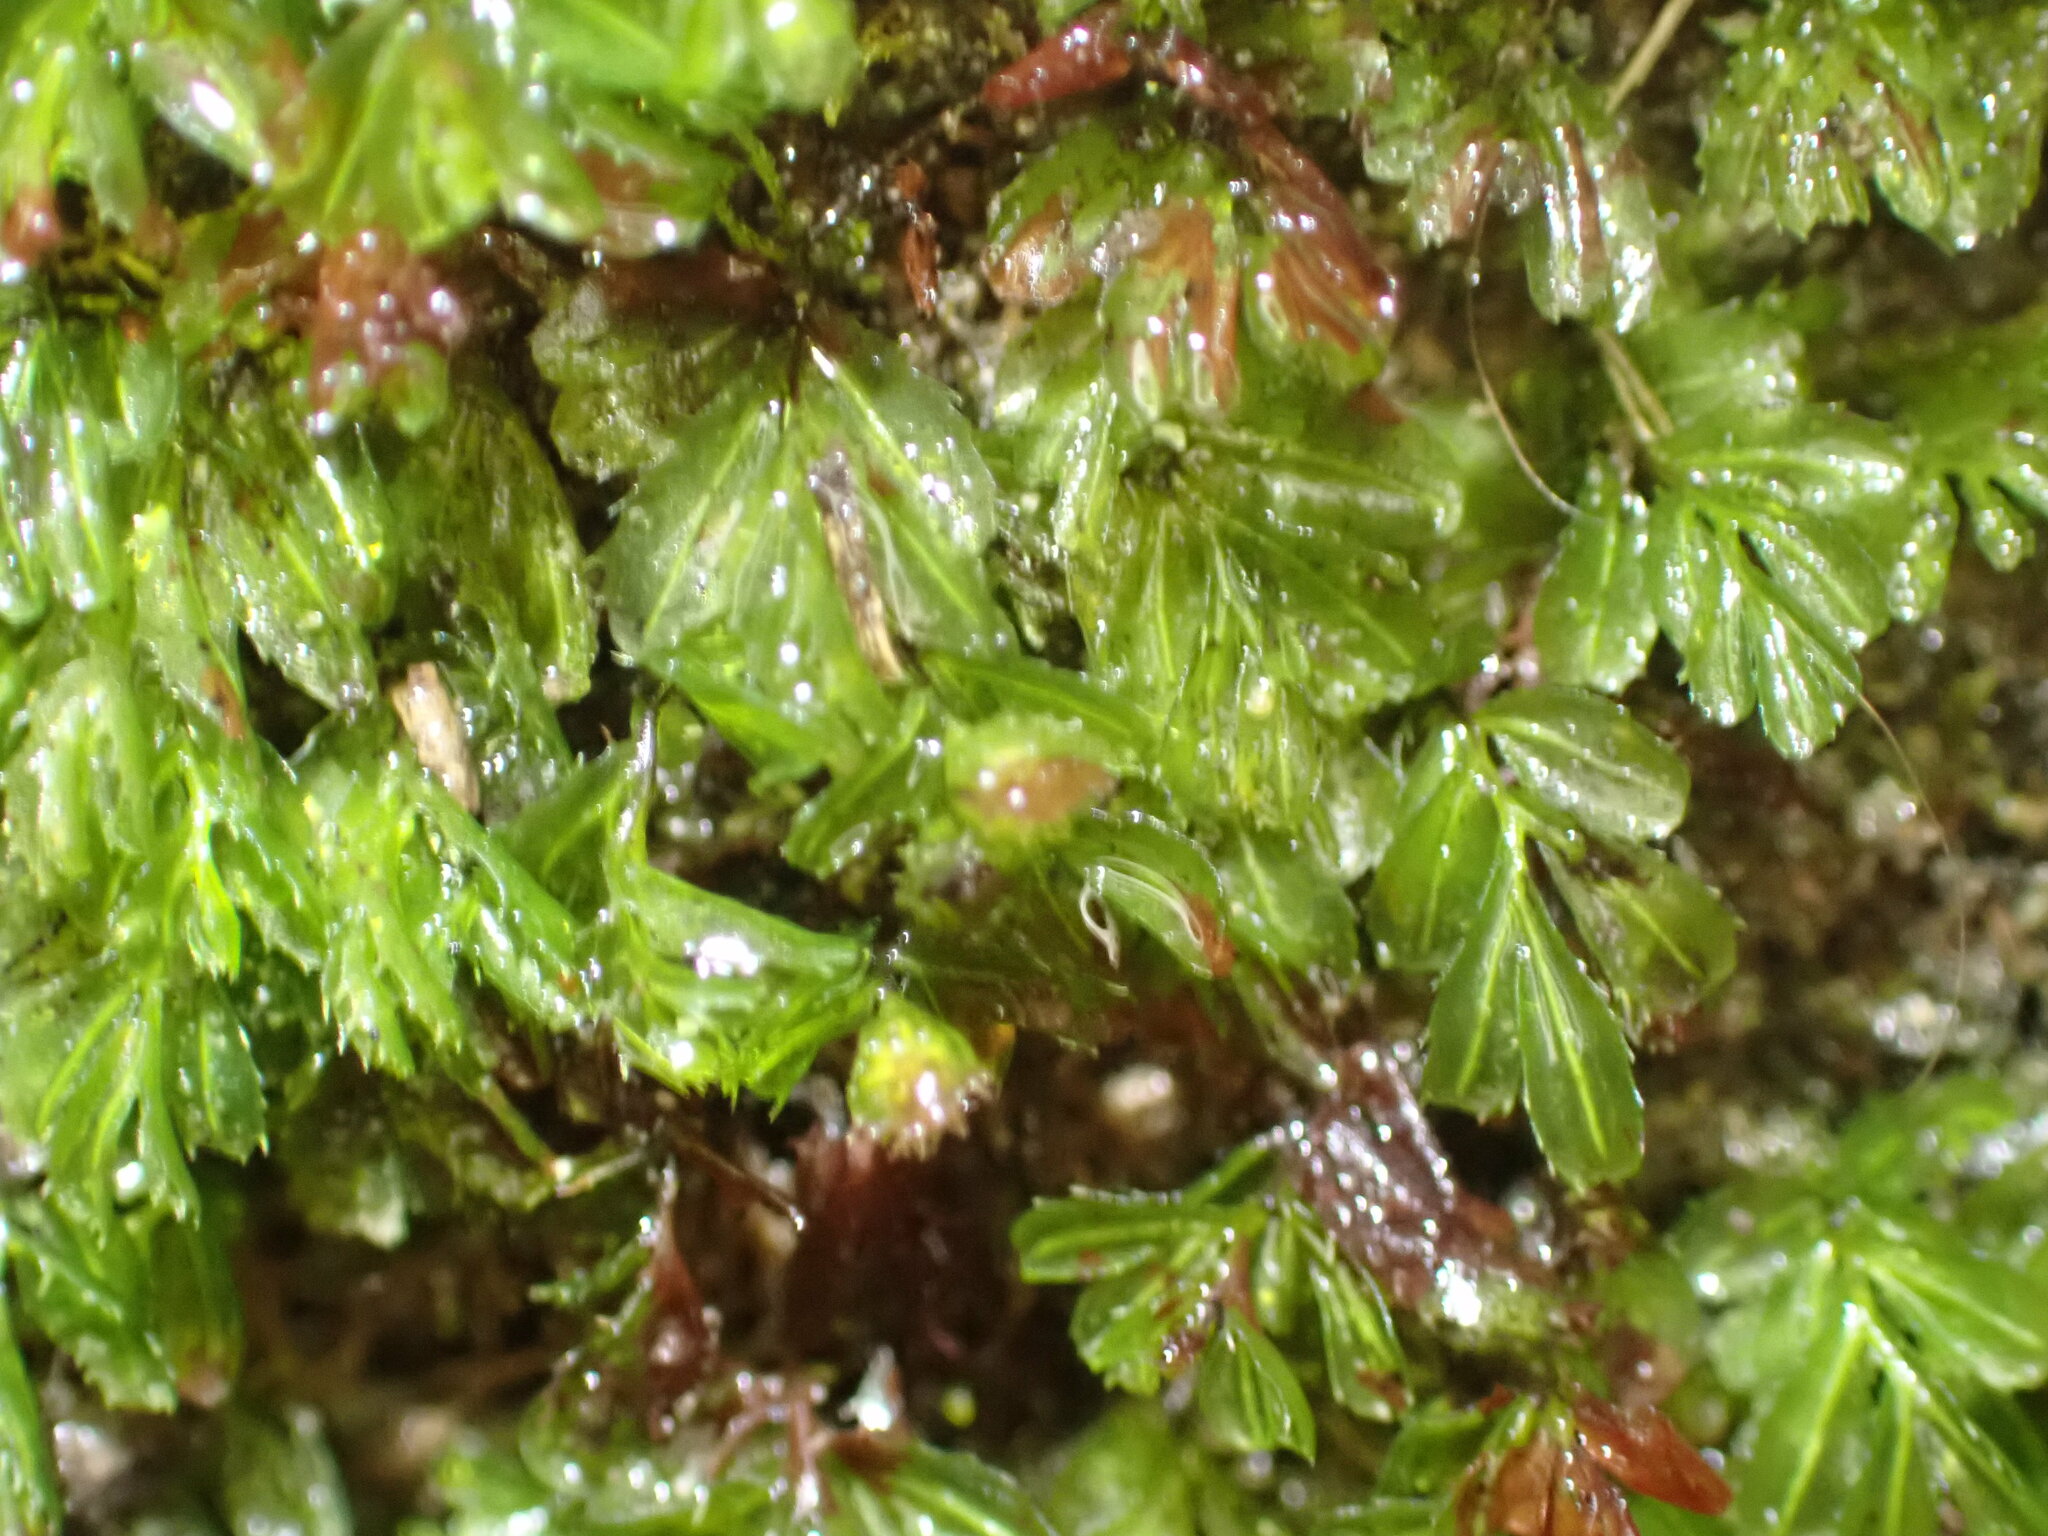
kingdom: Plantae
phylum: Tracheophyta
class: Polypodiopsida
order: Hymenophyllales
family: Hymenophyllaceae
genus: Hymenophyllum
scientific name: Hymenophyllum minimum
